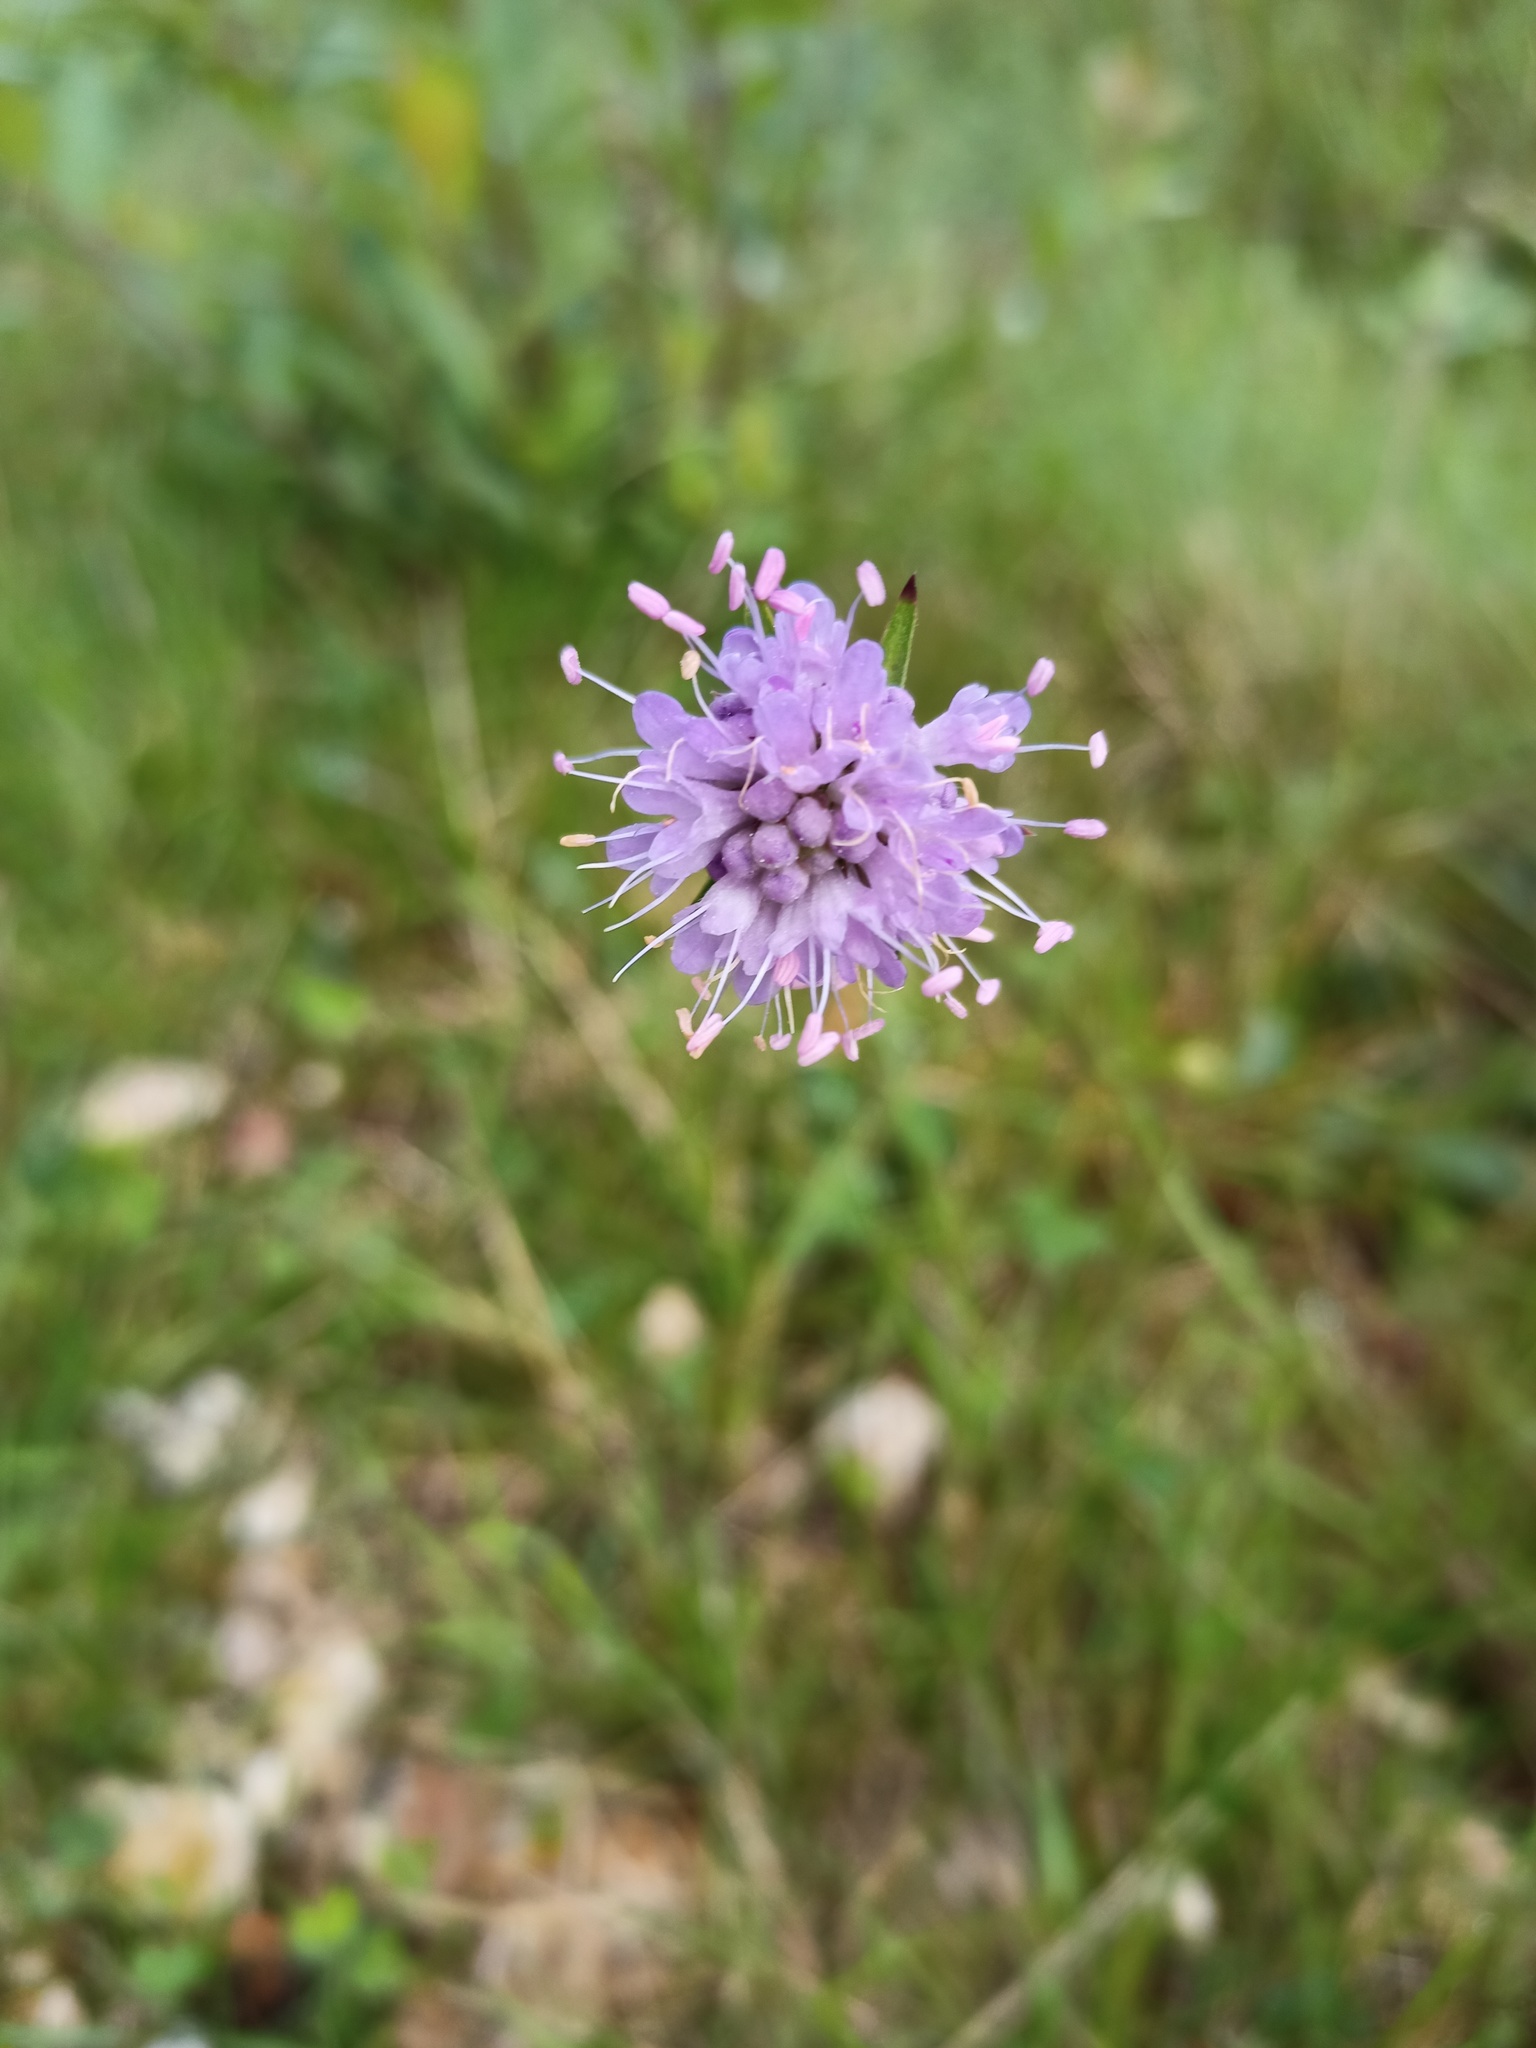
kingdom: Plantae
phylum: Tracheophyta
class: Magnoliopsida
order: Dipsacales
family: Caprifoliaceae
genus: Succisa
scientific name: Succisa pratensis
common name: Devil's-bit
